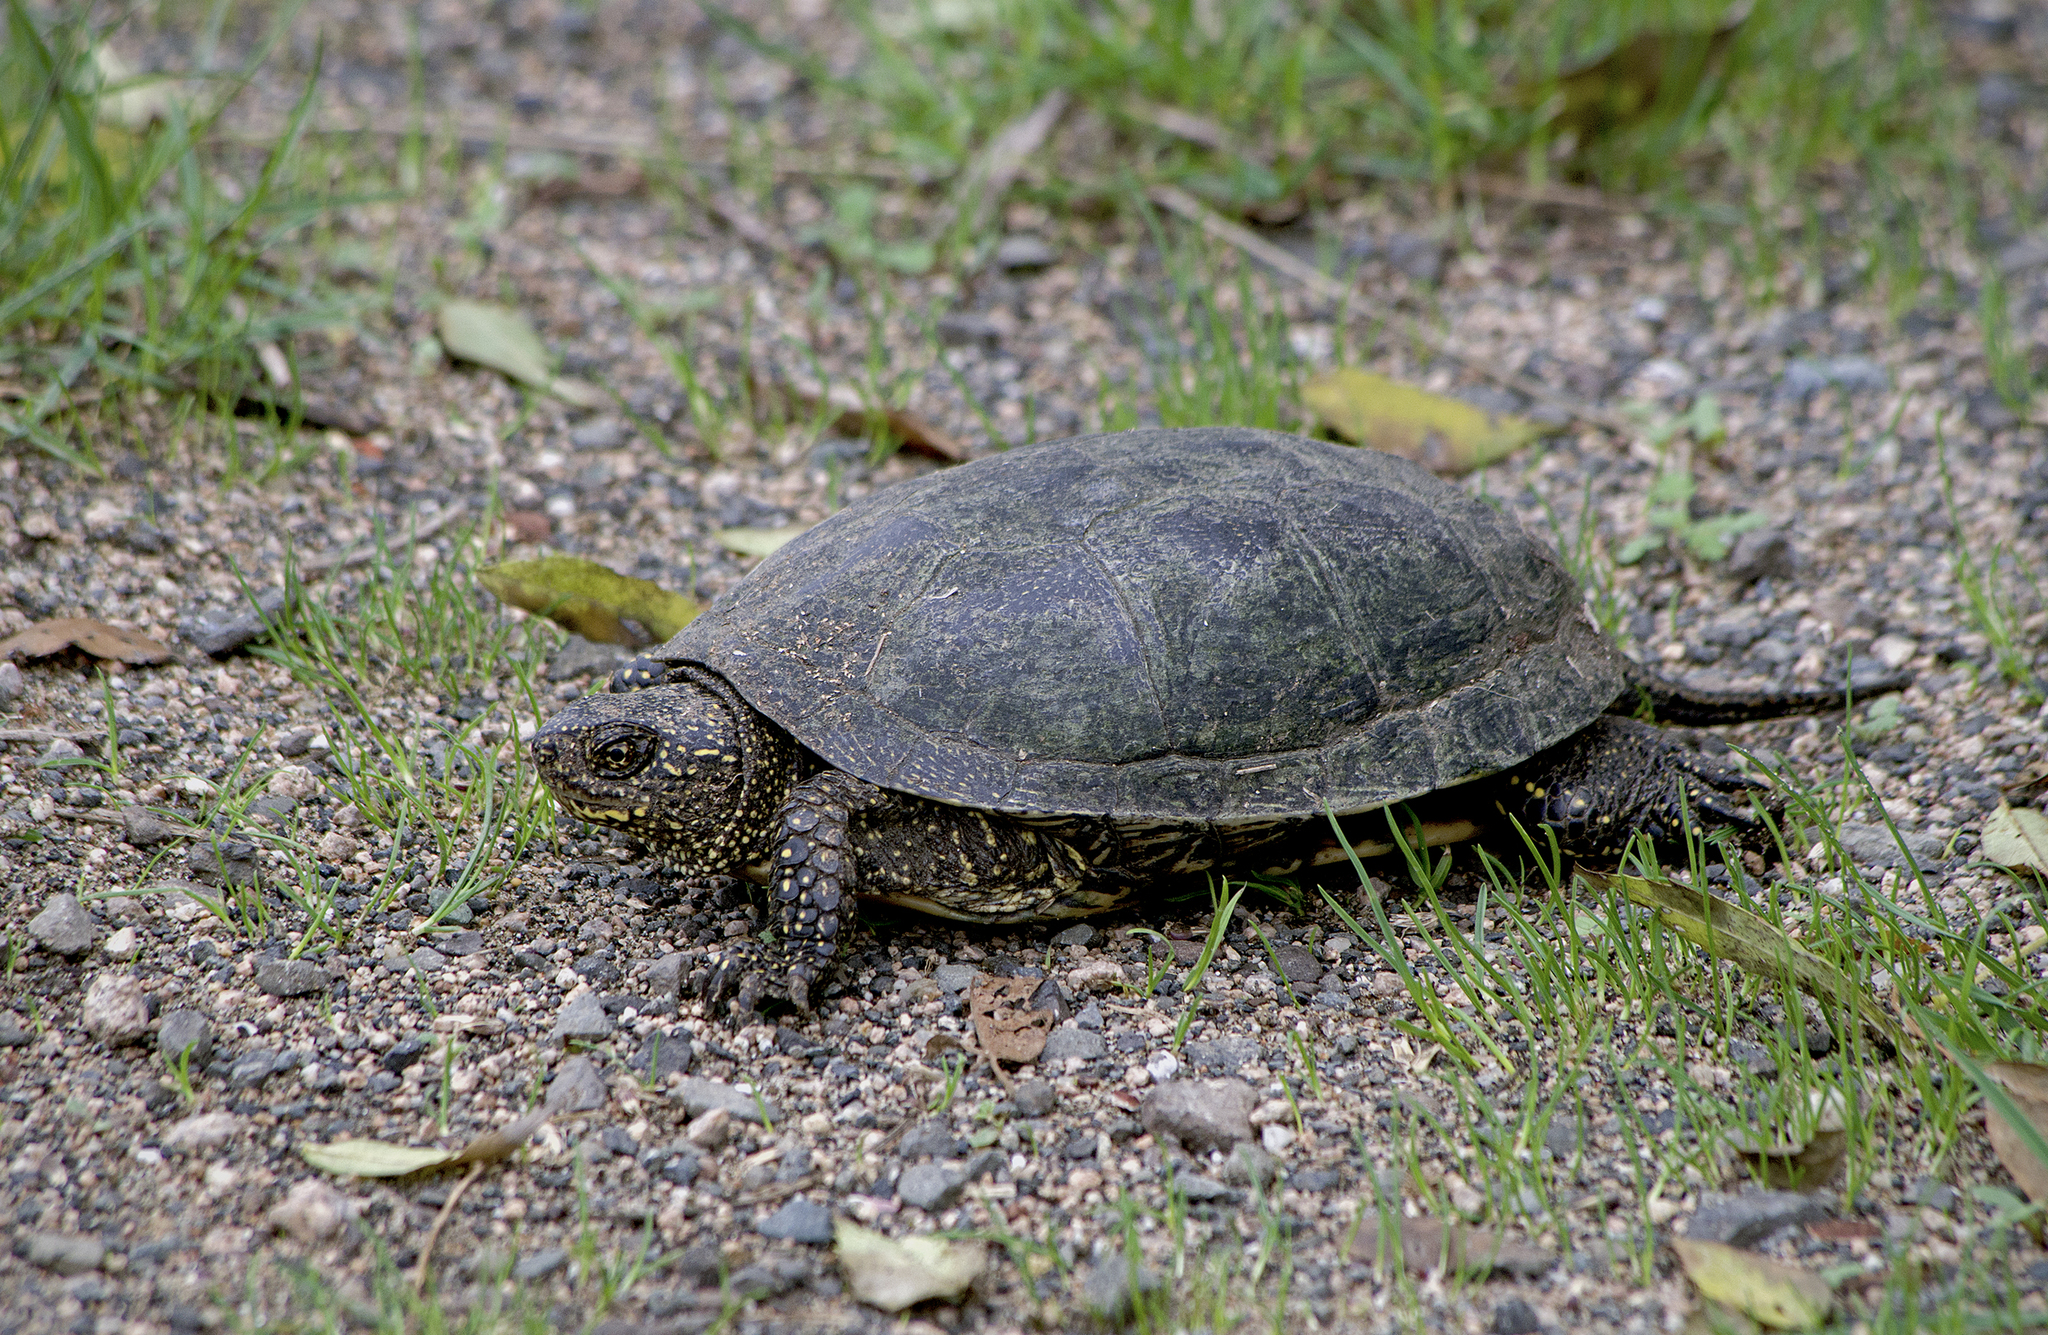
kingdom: Animalia
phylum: Chordata
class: Testudines
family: Emydidae
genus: Emys
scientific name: Emys orbicularis
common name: European pond turtle
